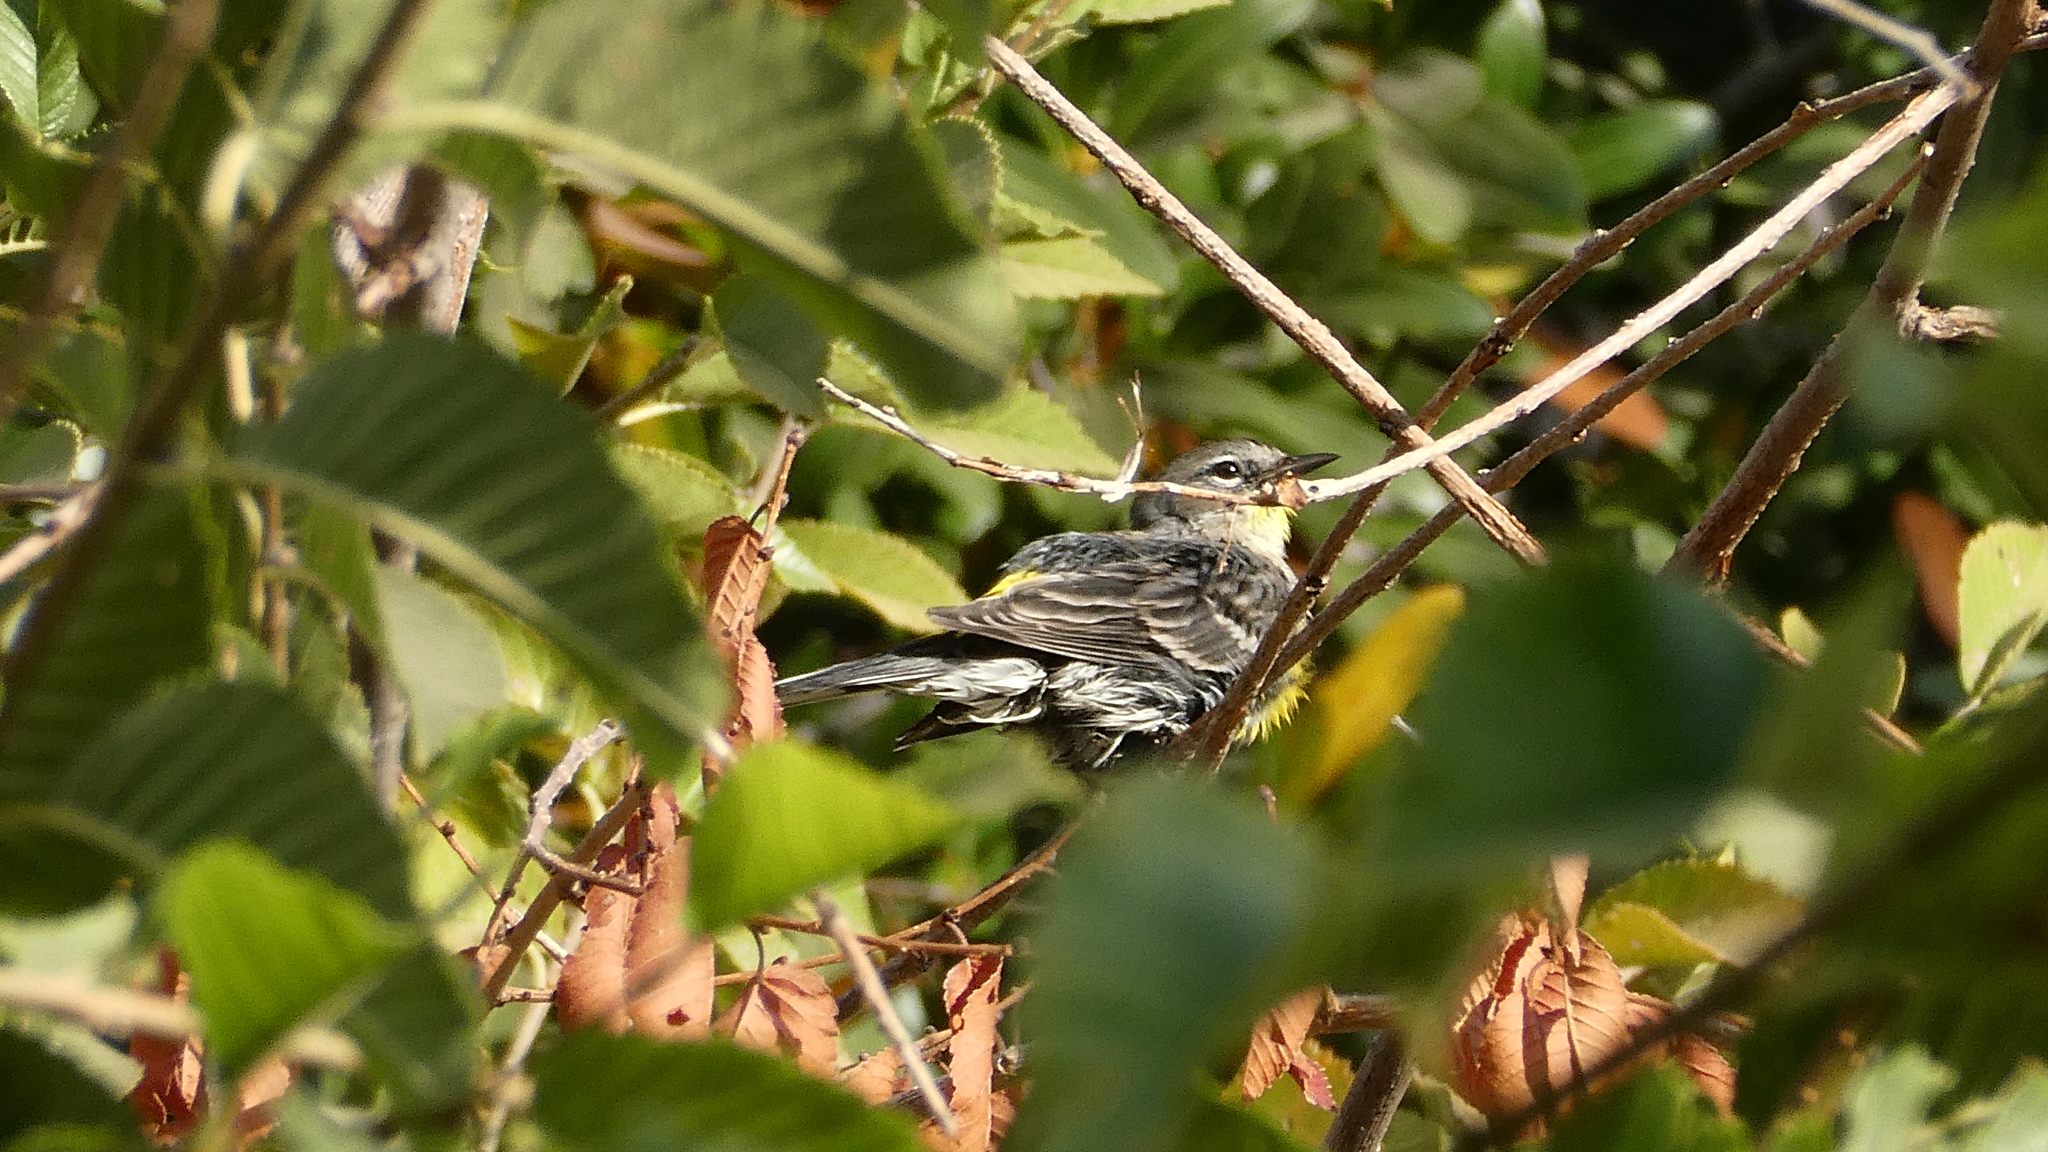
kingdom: Animalia
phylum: Chordata
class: Aves
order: Passeriformes
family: Parulidae
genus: Setophaga
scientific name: Setophaga coronata
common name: Myrtle warbler
